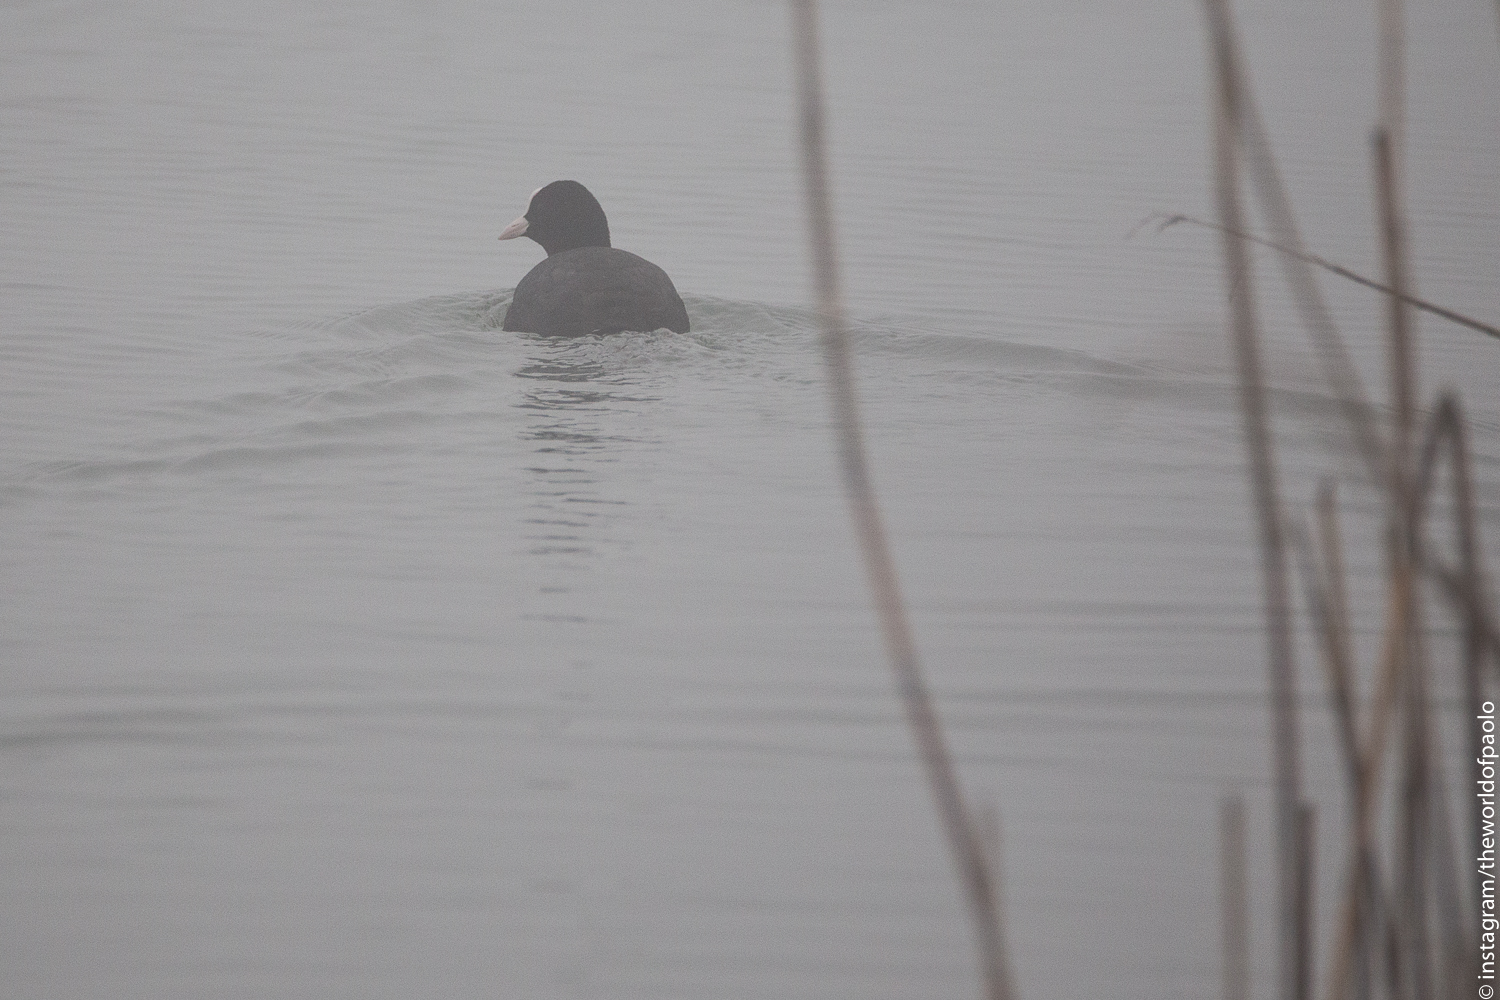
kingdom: Animalia
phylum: Chordata
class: Aves
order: Gruiformes
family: Rallidae
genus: Fulica
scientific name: Fulica atra
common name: Eurasian coot
